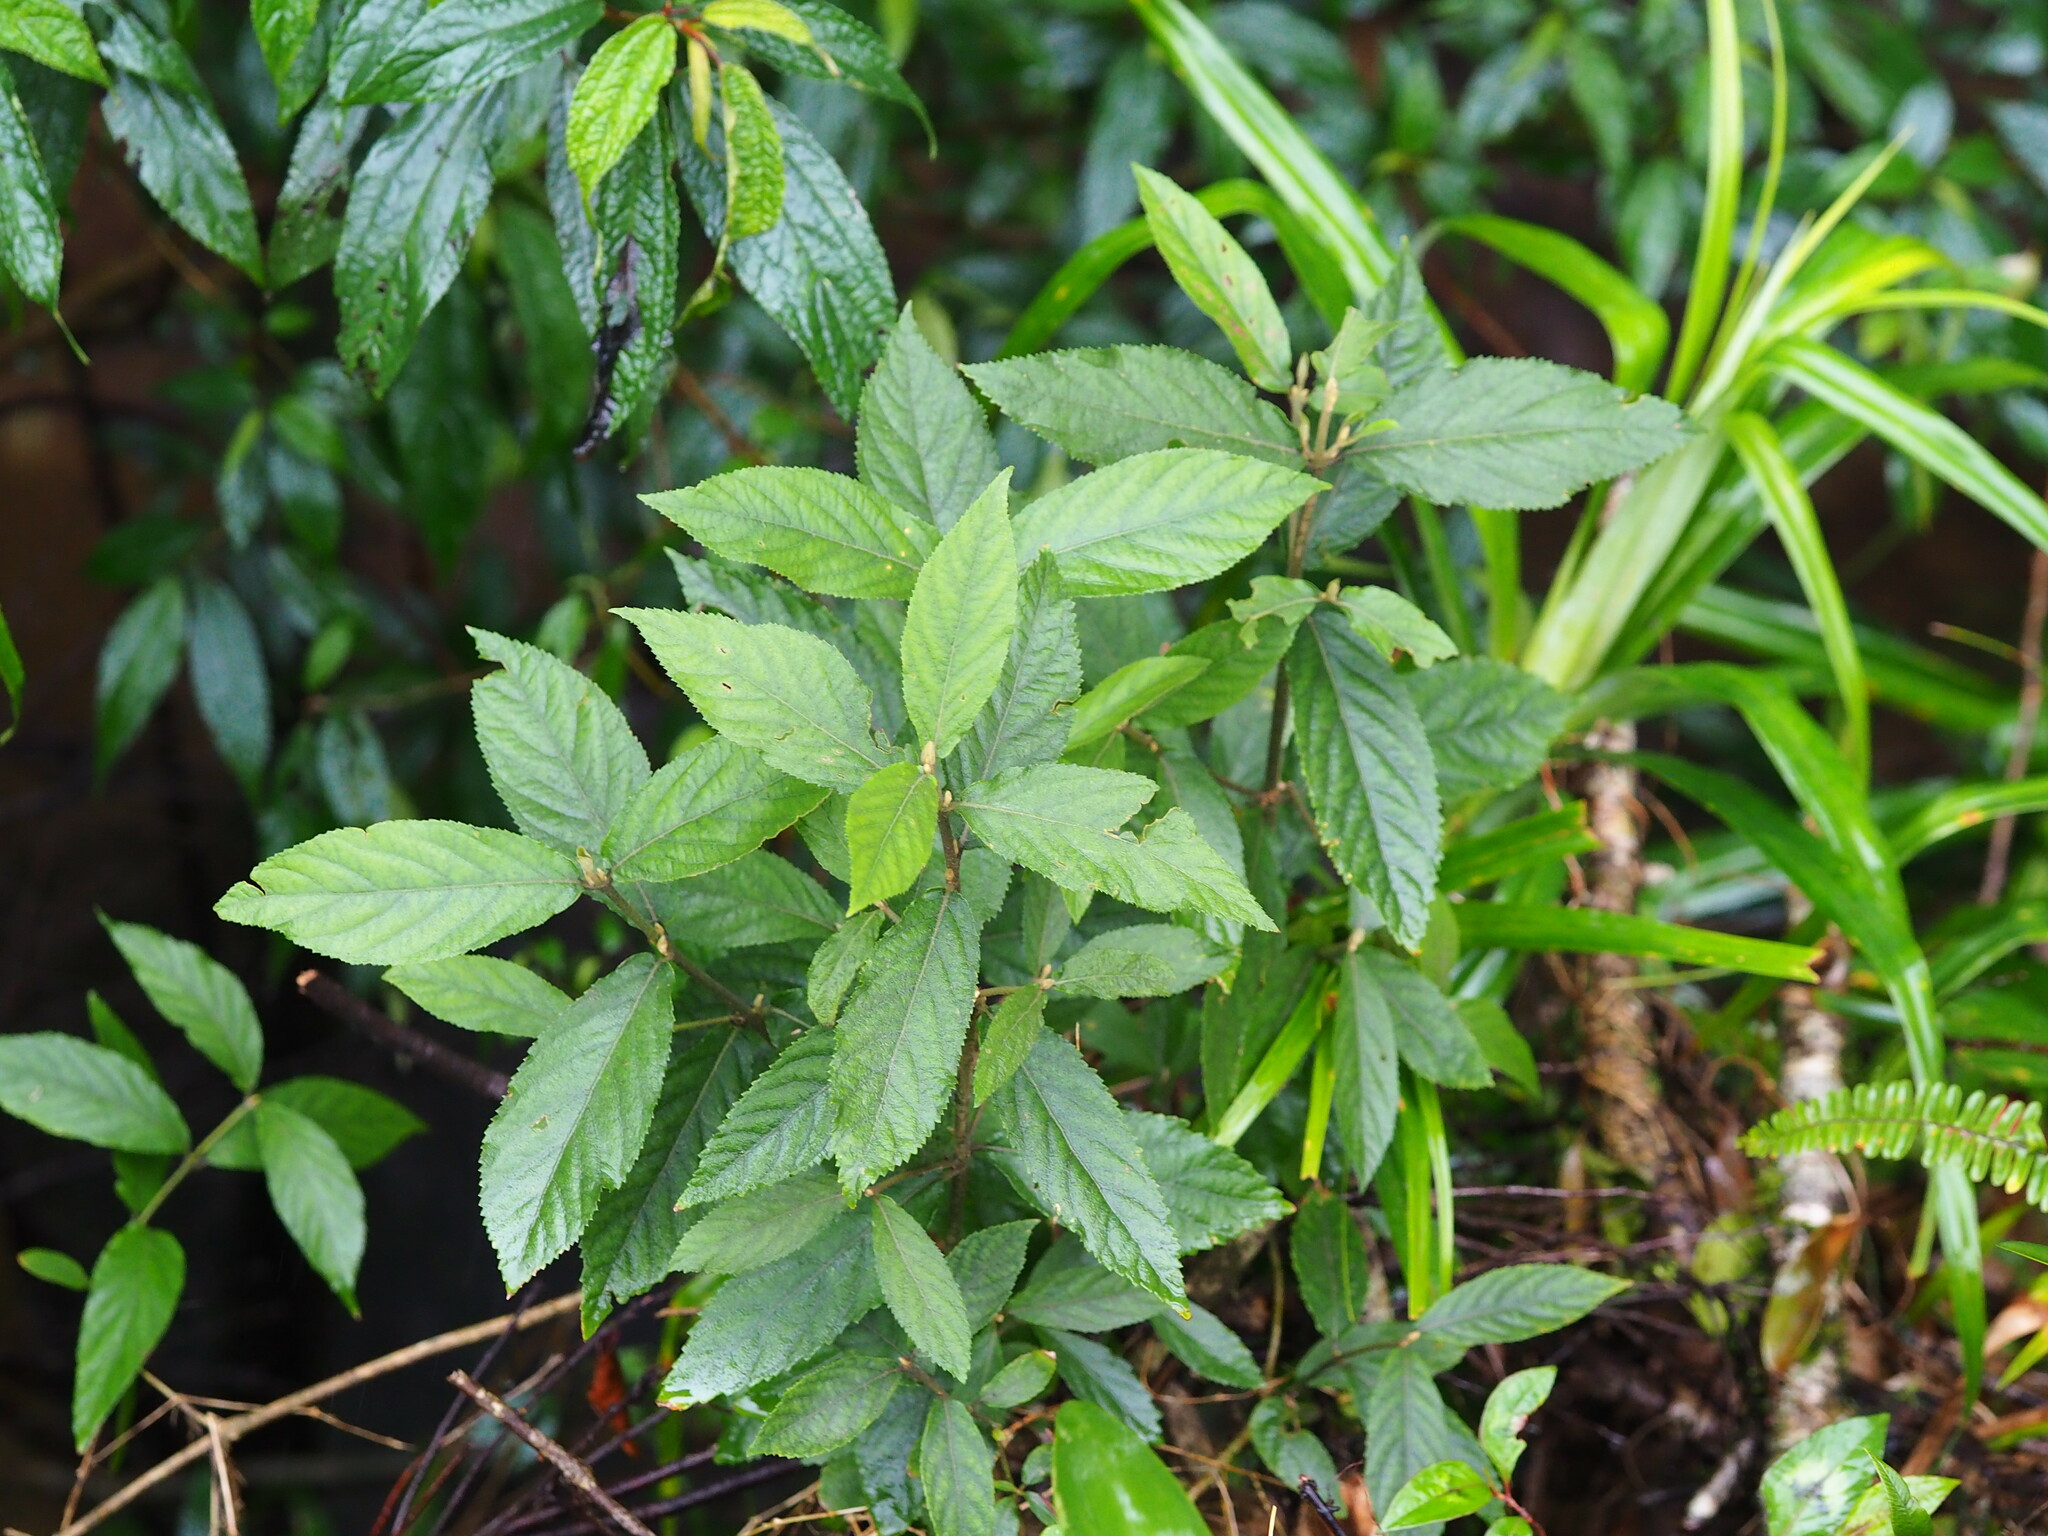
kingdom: Plantae
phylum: Tracheophyta
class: Magnoliopsida
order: Lamiales
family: Lamiaceae
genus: Callicarpa
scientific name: Callicarpa tikusikensis
